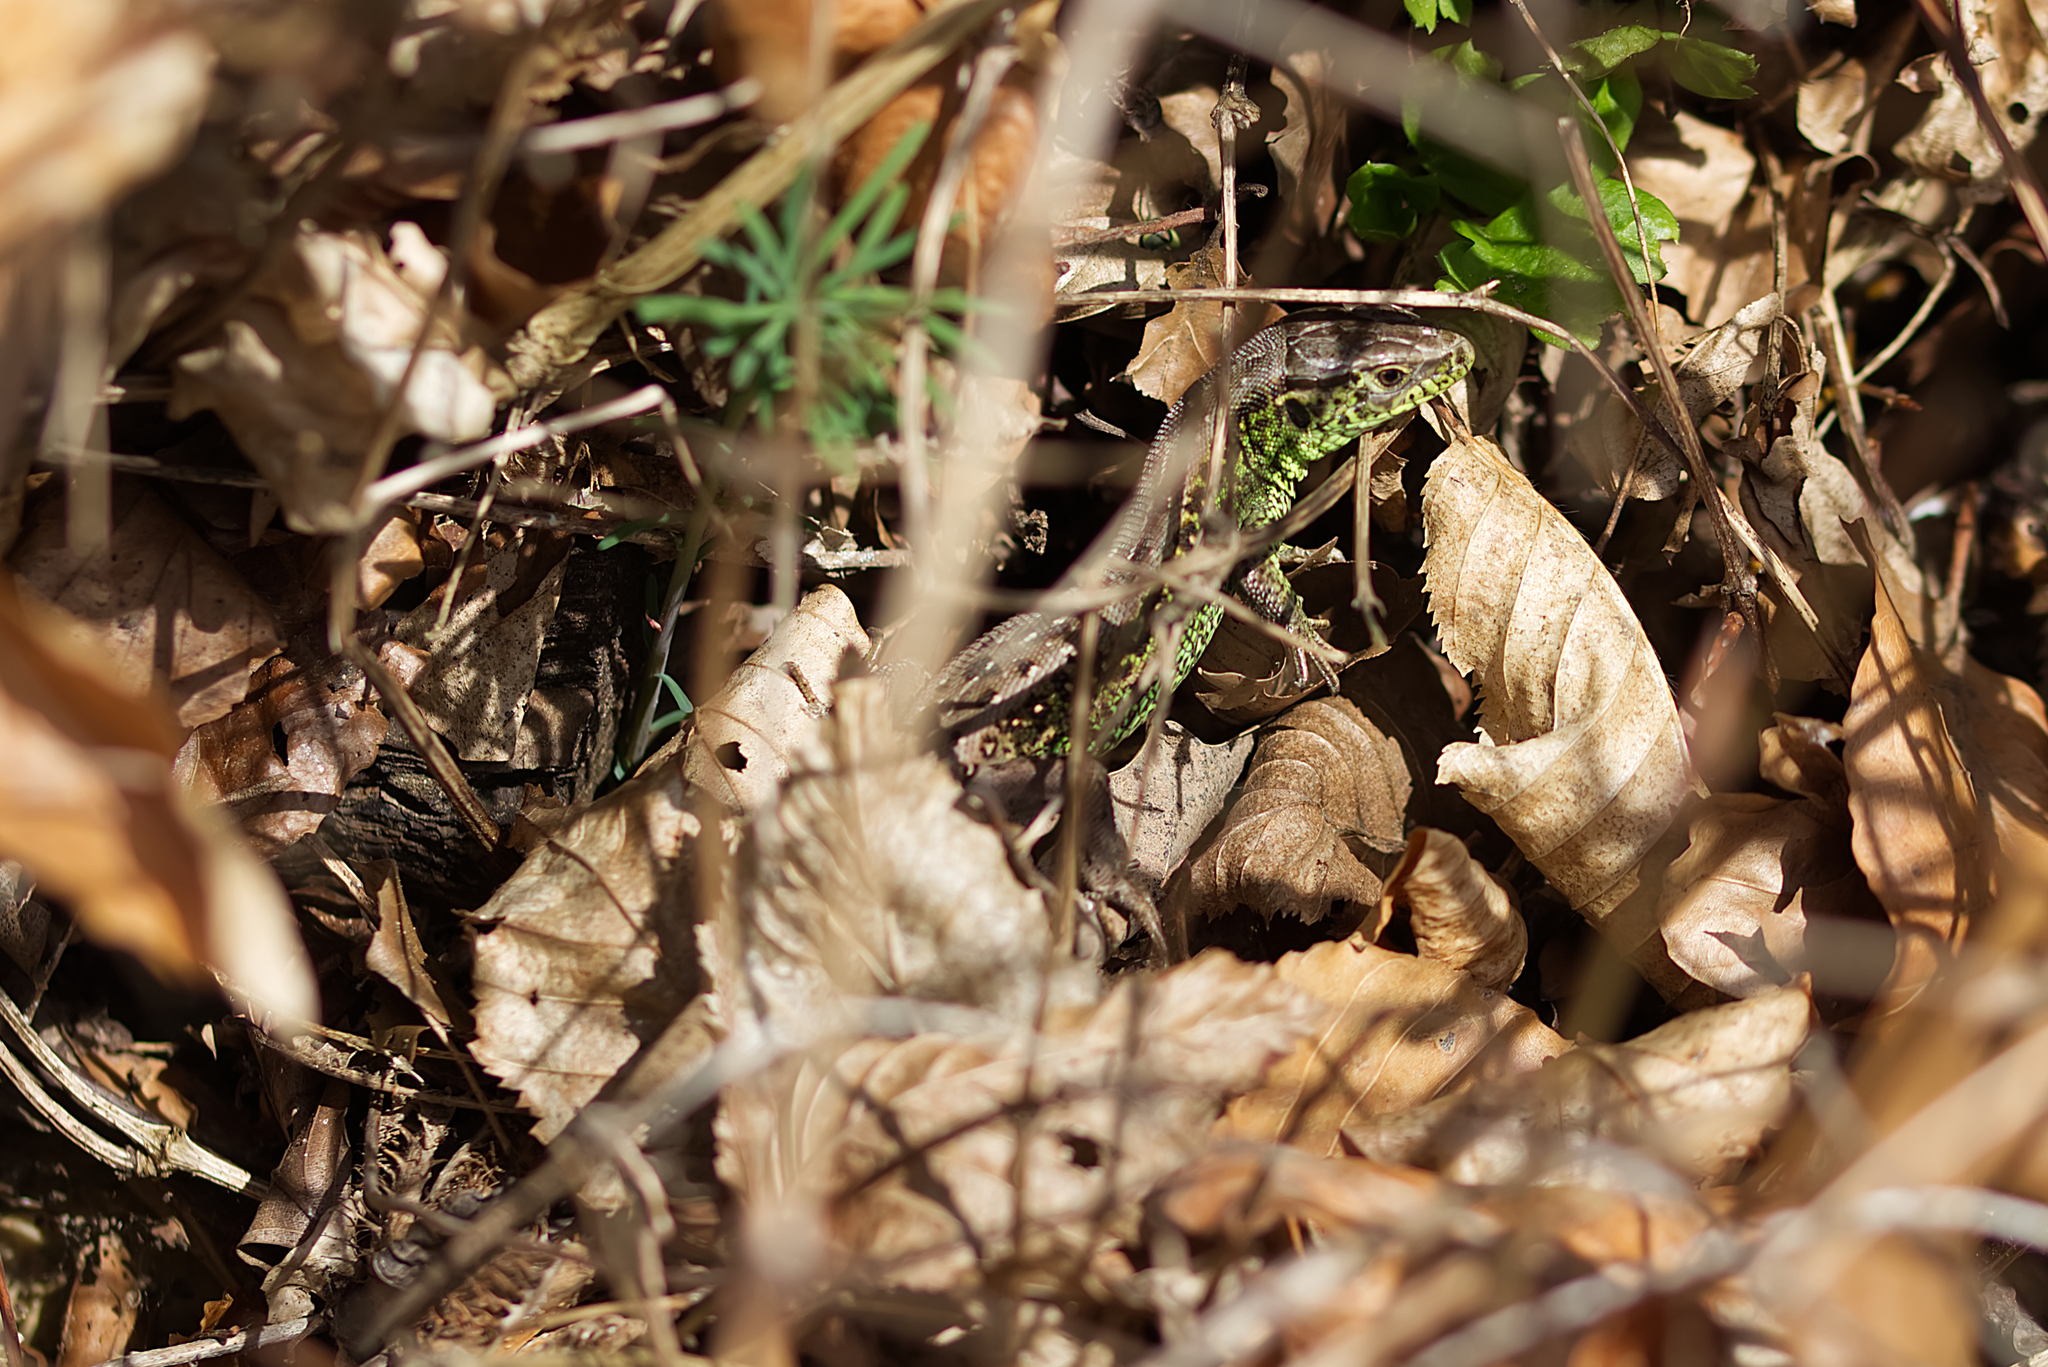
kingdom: Animalia
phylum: Chordata
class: Squamata
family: Lacertidae
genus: Lacerta
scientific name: Lacerta agilis
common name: Sand lizard
